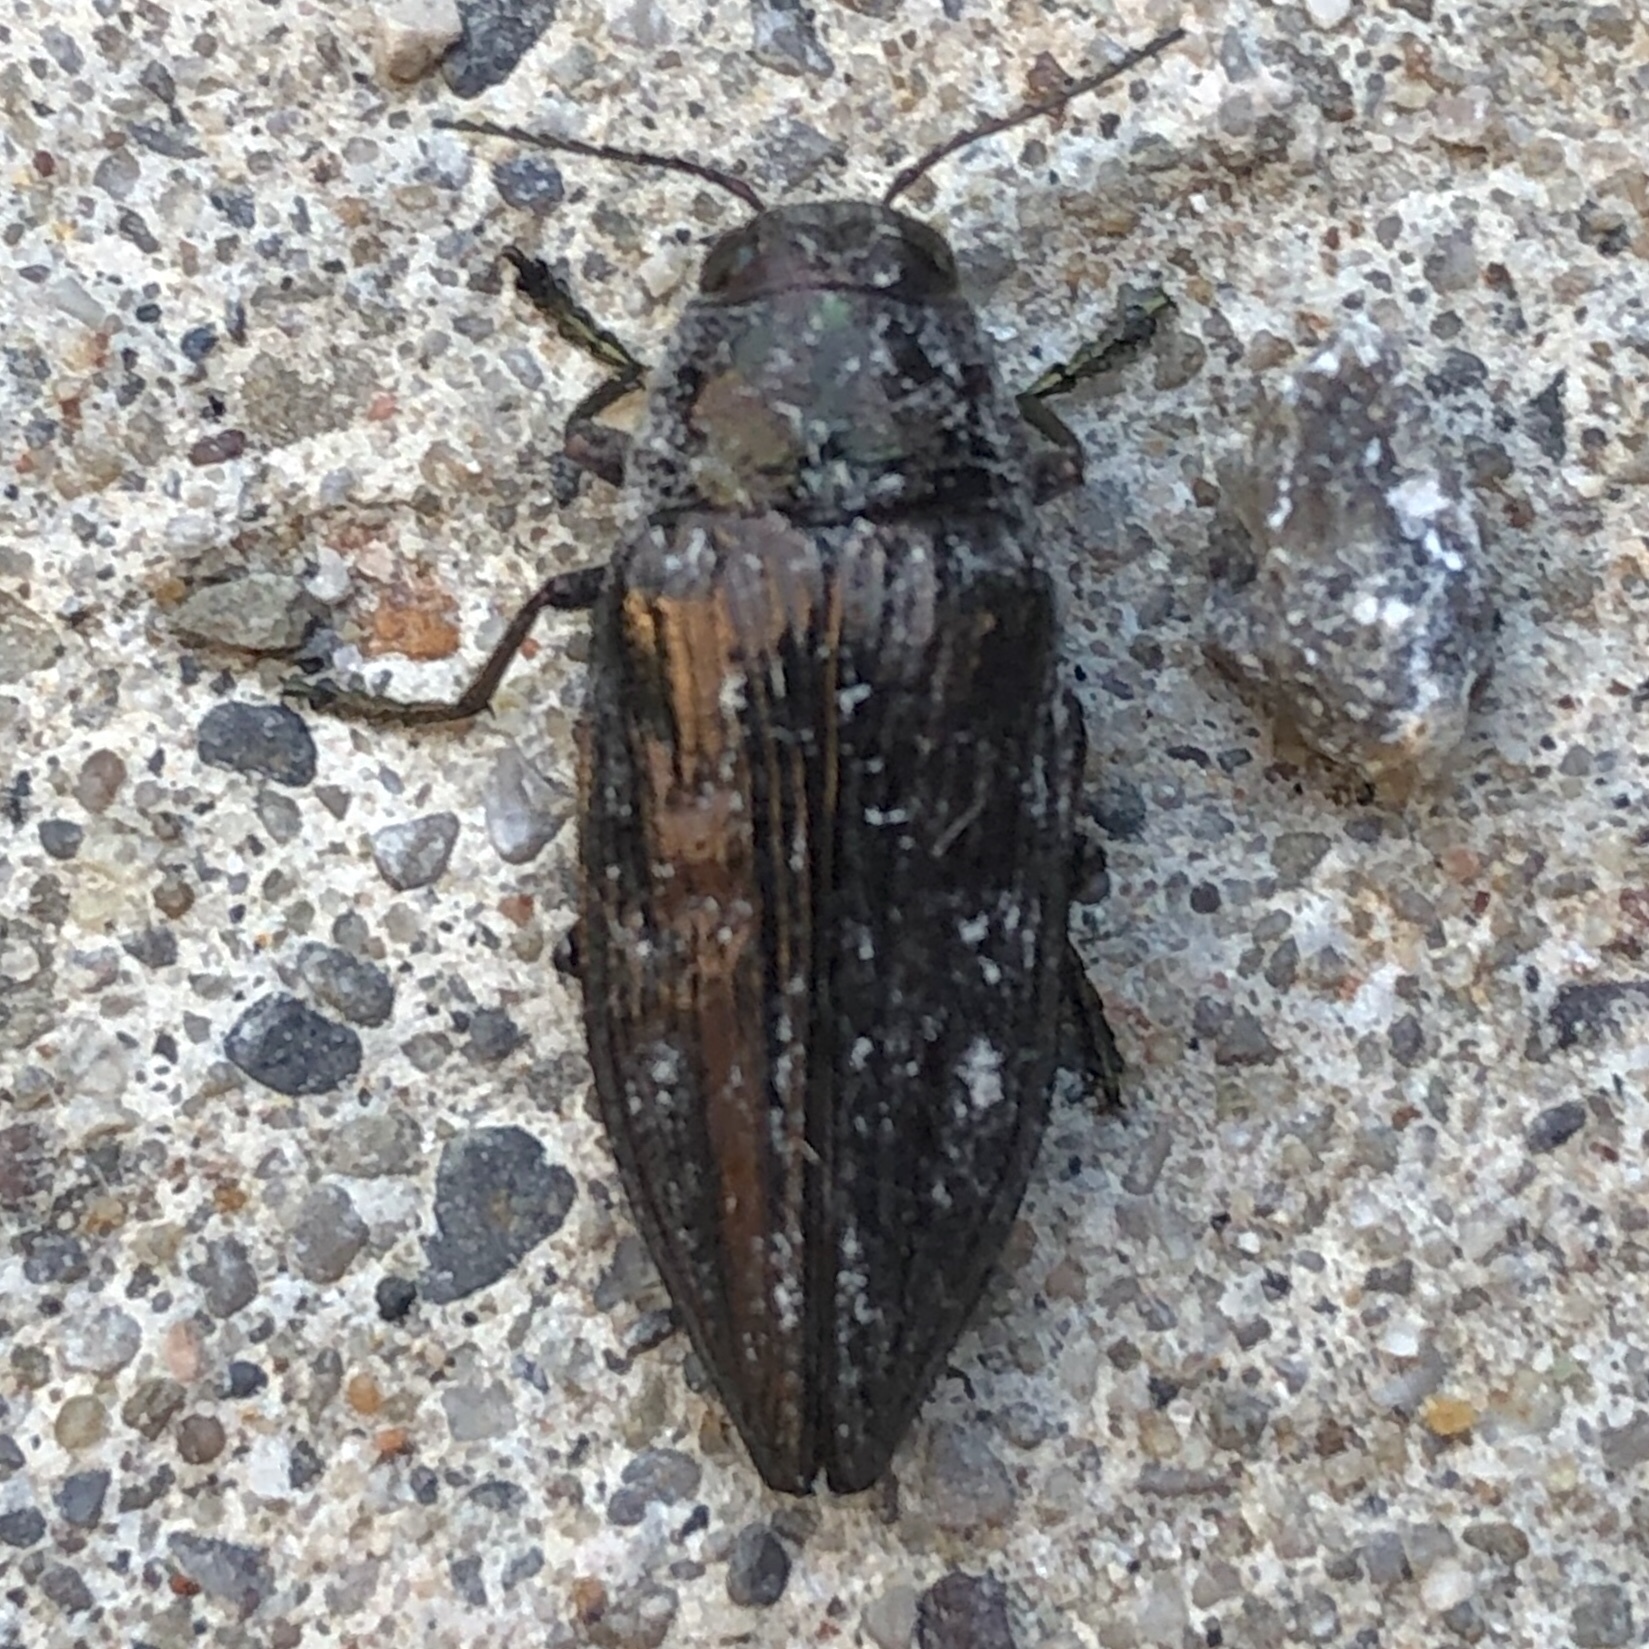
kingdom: Animalia
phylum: Arthropoda
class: Insecta
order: Coleoptera
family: Buprestidae
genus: Buprestis
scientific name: Buprestis maculativentris
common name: Spotted-belly buprestid beetle
